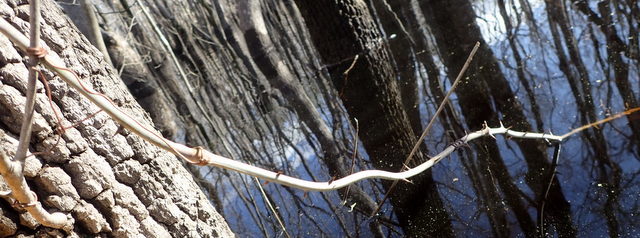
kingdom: Plantae
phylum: Tracheophyta
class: Liliopsida
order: Liliales
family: Smilacaceae
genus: Smilax
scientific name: Smilax laurifolia
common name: Bamboovine
